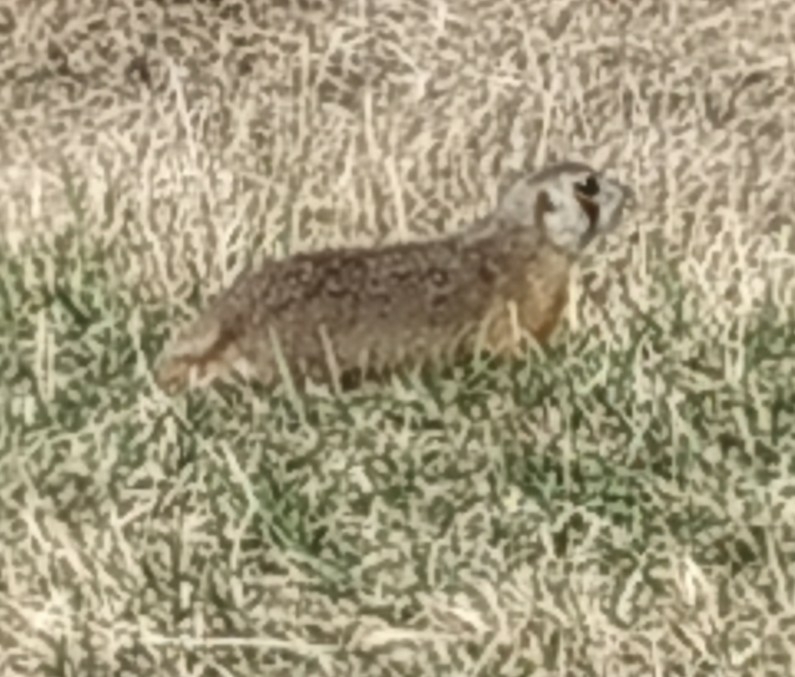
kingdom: Animalia
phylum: Chordata
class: Mammalia
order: Rodentia
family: Sciuridae
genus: Spermophilus
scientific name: Spermophilus erythrogenys
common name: Red-cheeked ground squirrel
